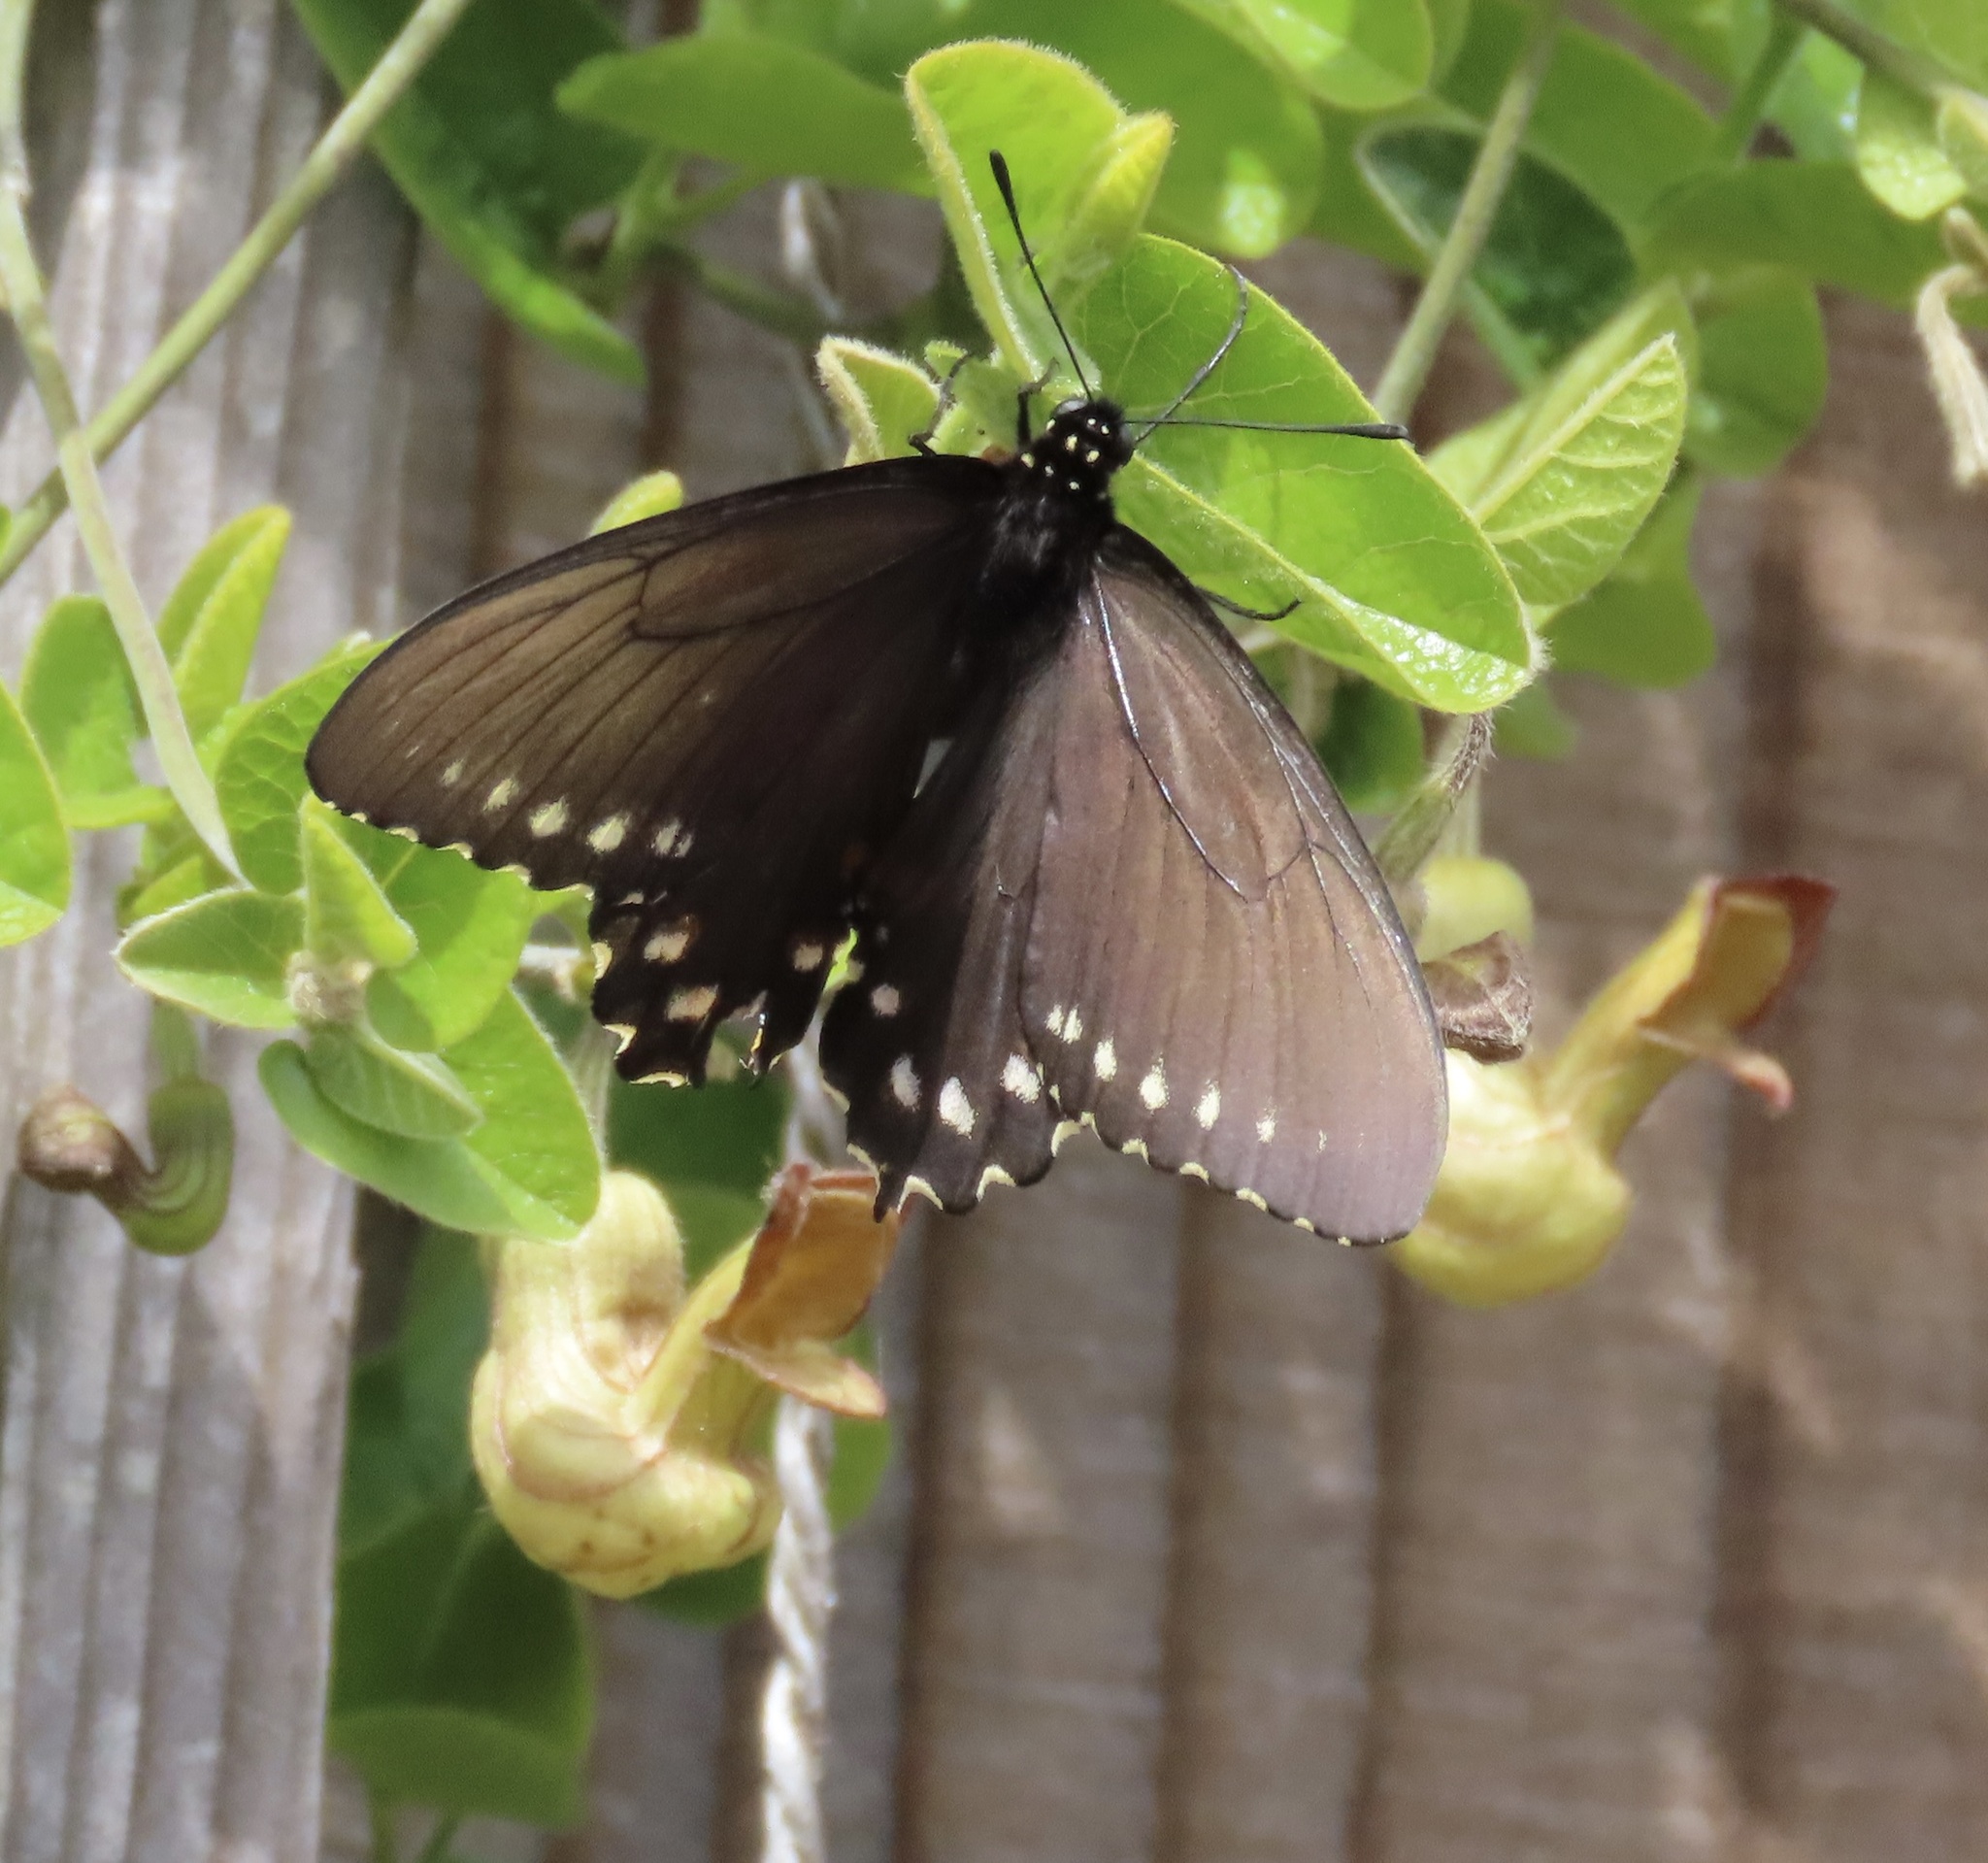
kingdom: Animalia
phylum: Arthropoda
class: Insecta
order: Lepidoptera
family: Papilionidae
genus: Battus
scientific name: Battus philenor
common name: Pipevine swallowtail
